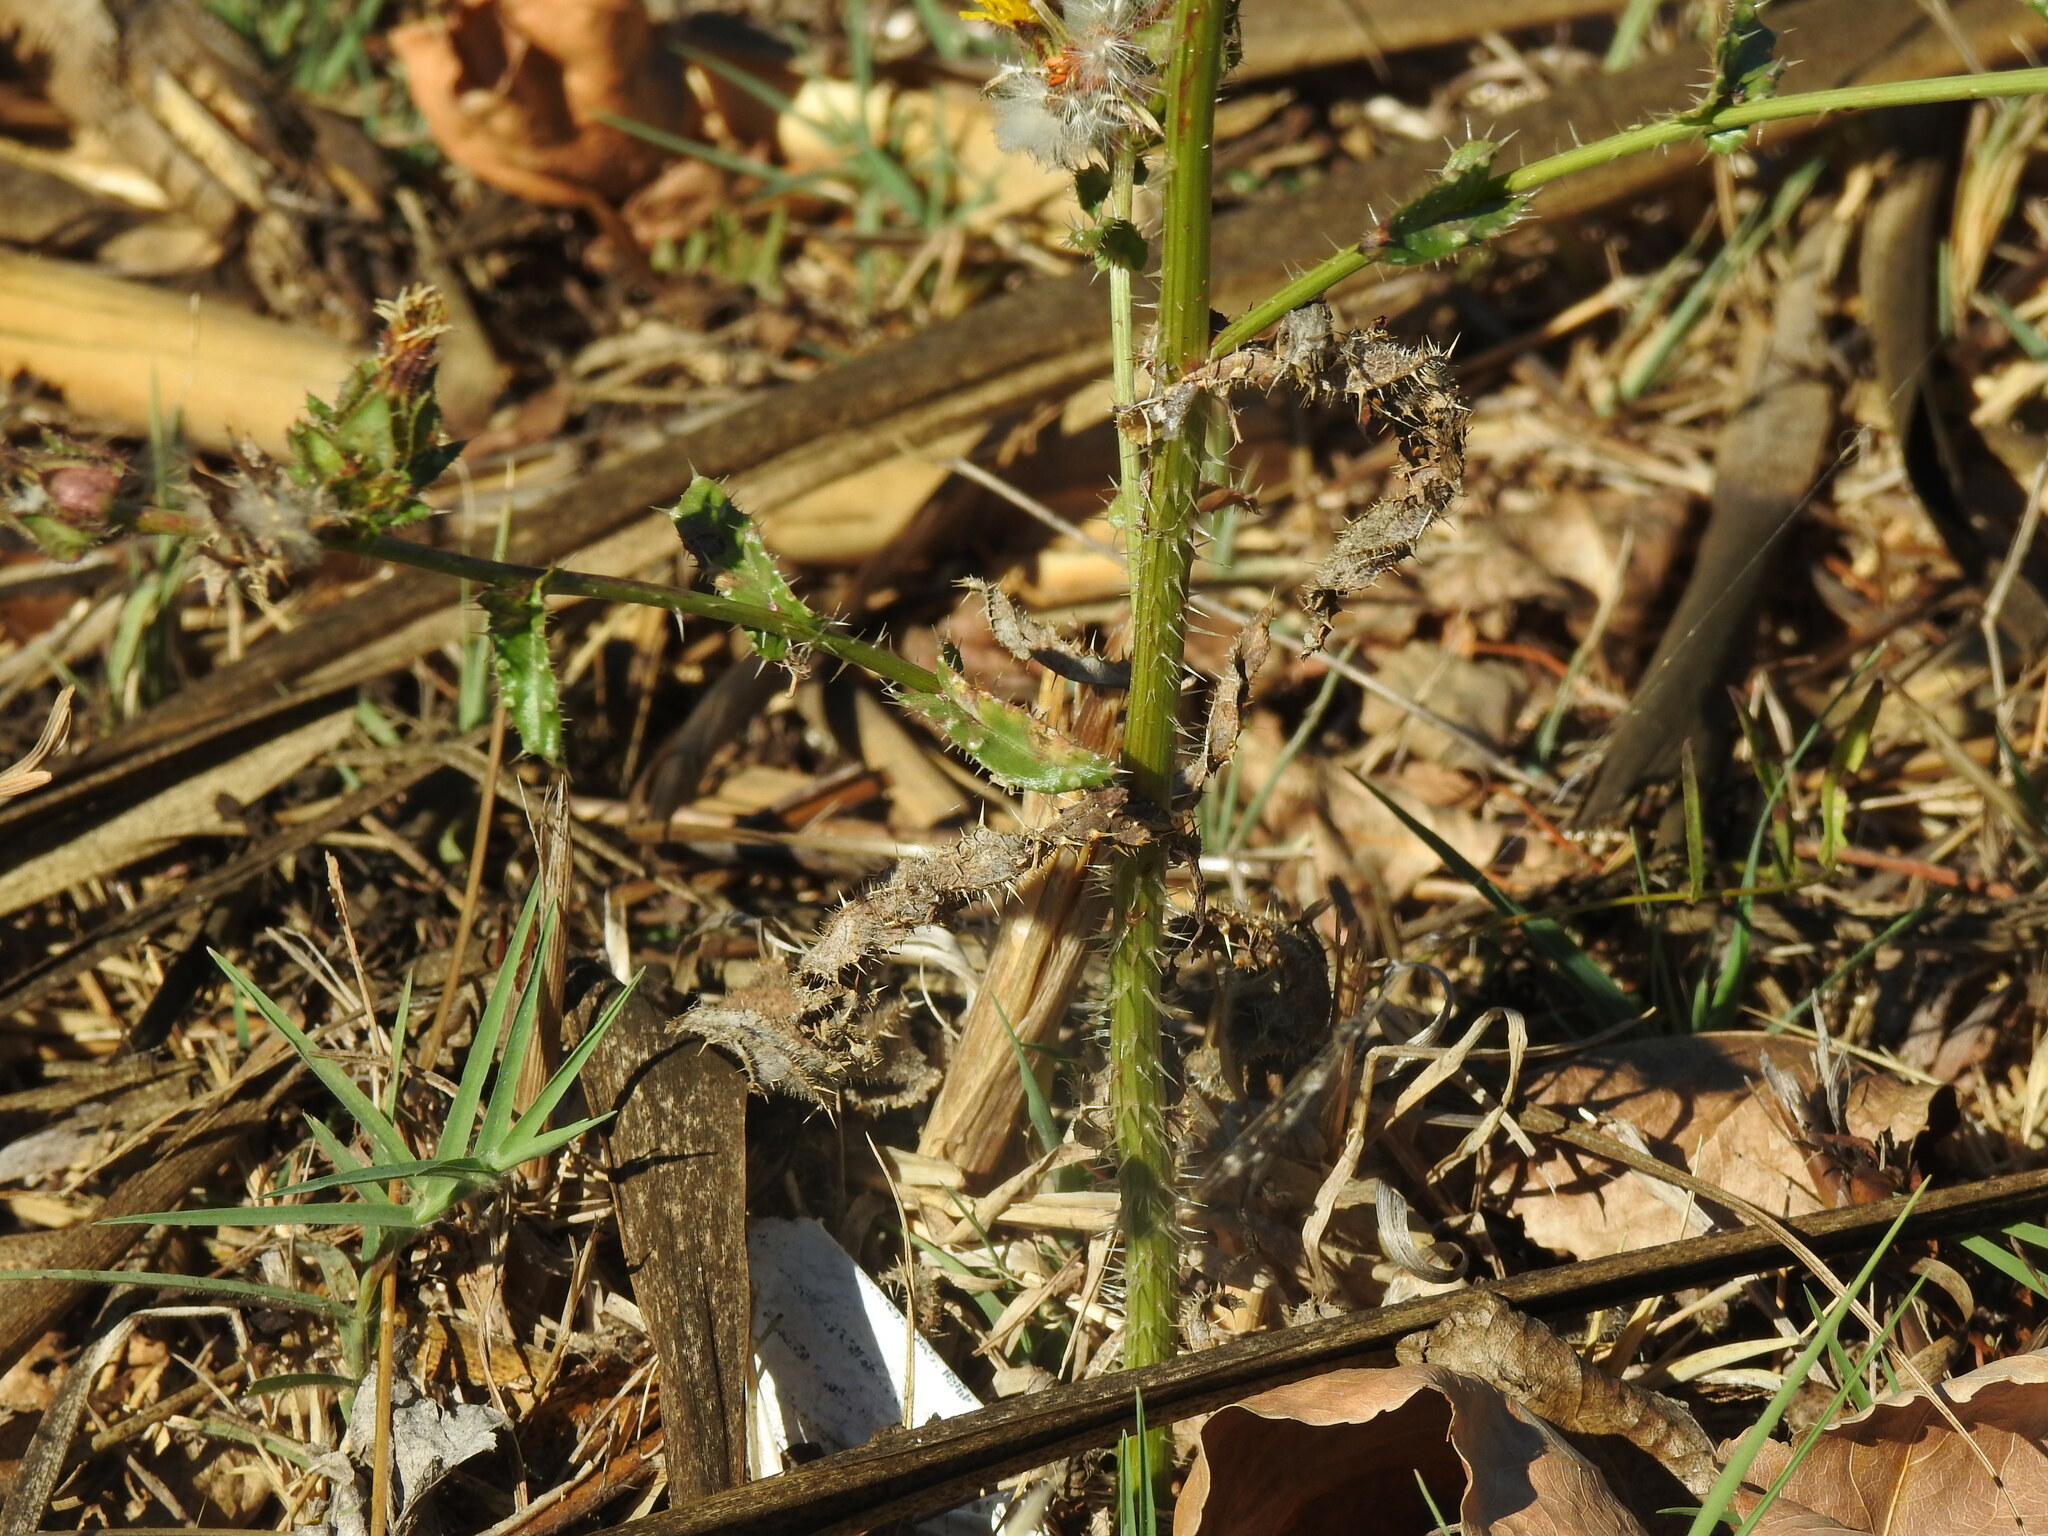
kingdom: Plantae
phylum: Tracheophyta
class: Magnoliopsida
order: Asterales
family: Asteraceae
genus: Helminthotheca
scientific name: Helminthotheca echioides
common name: Ox-tongue
